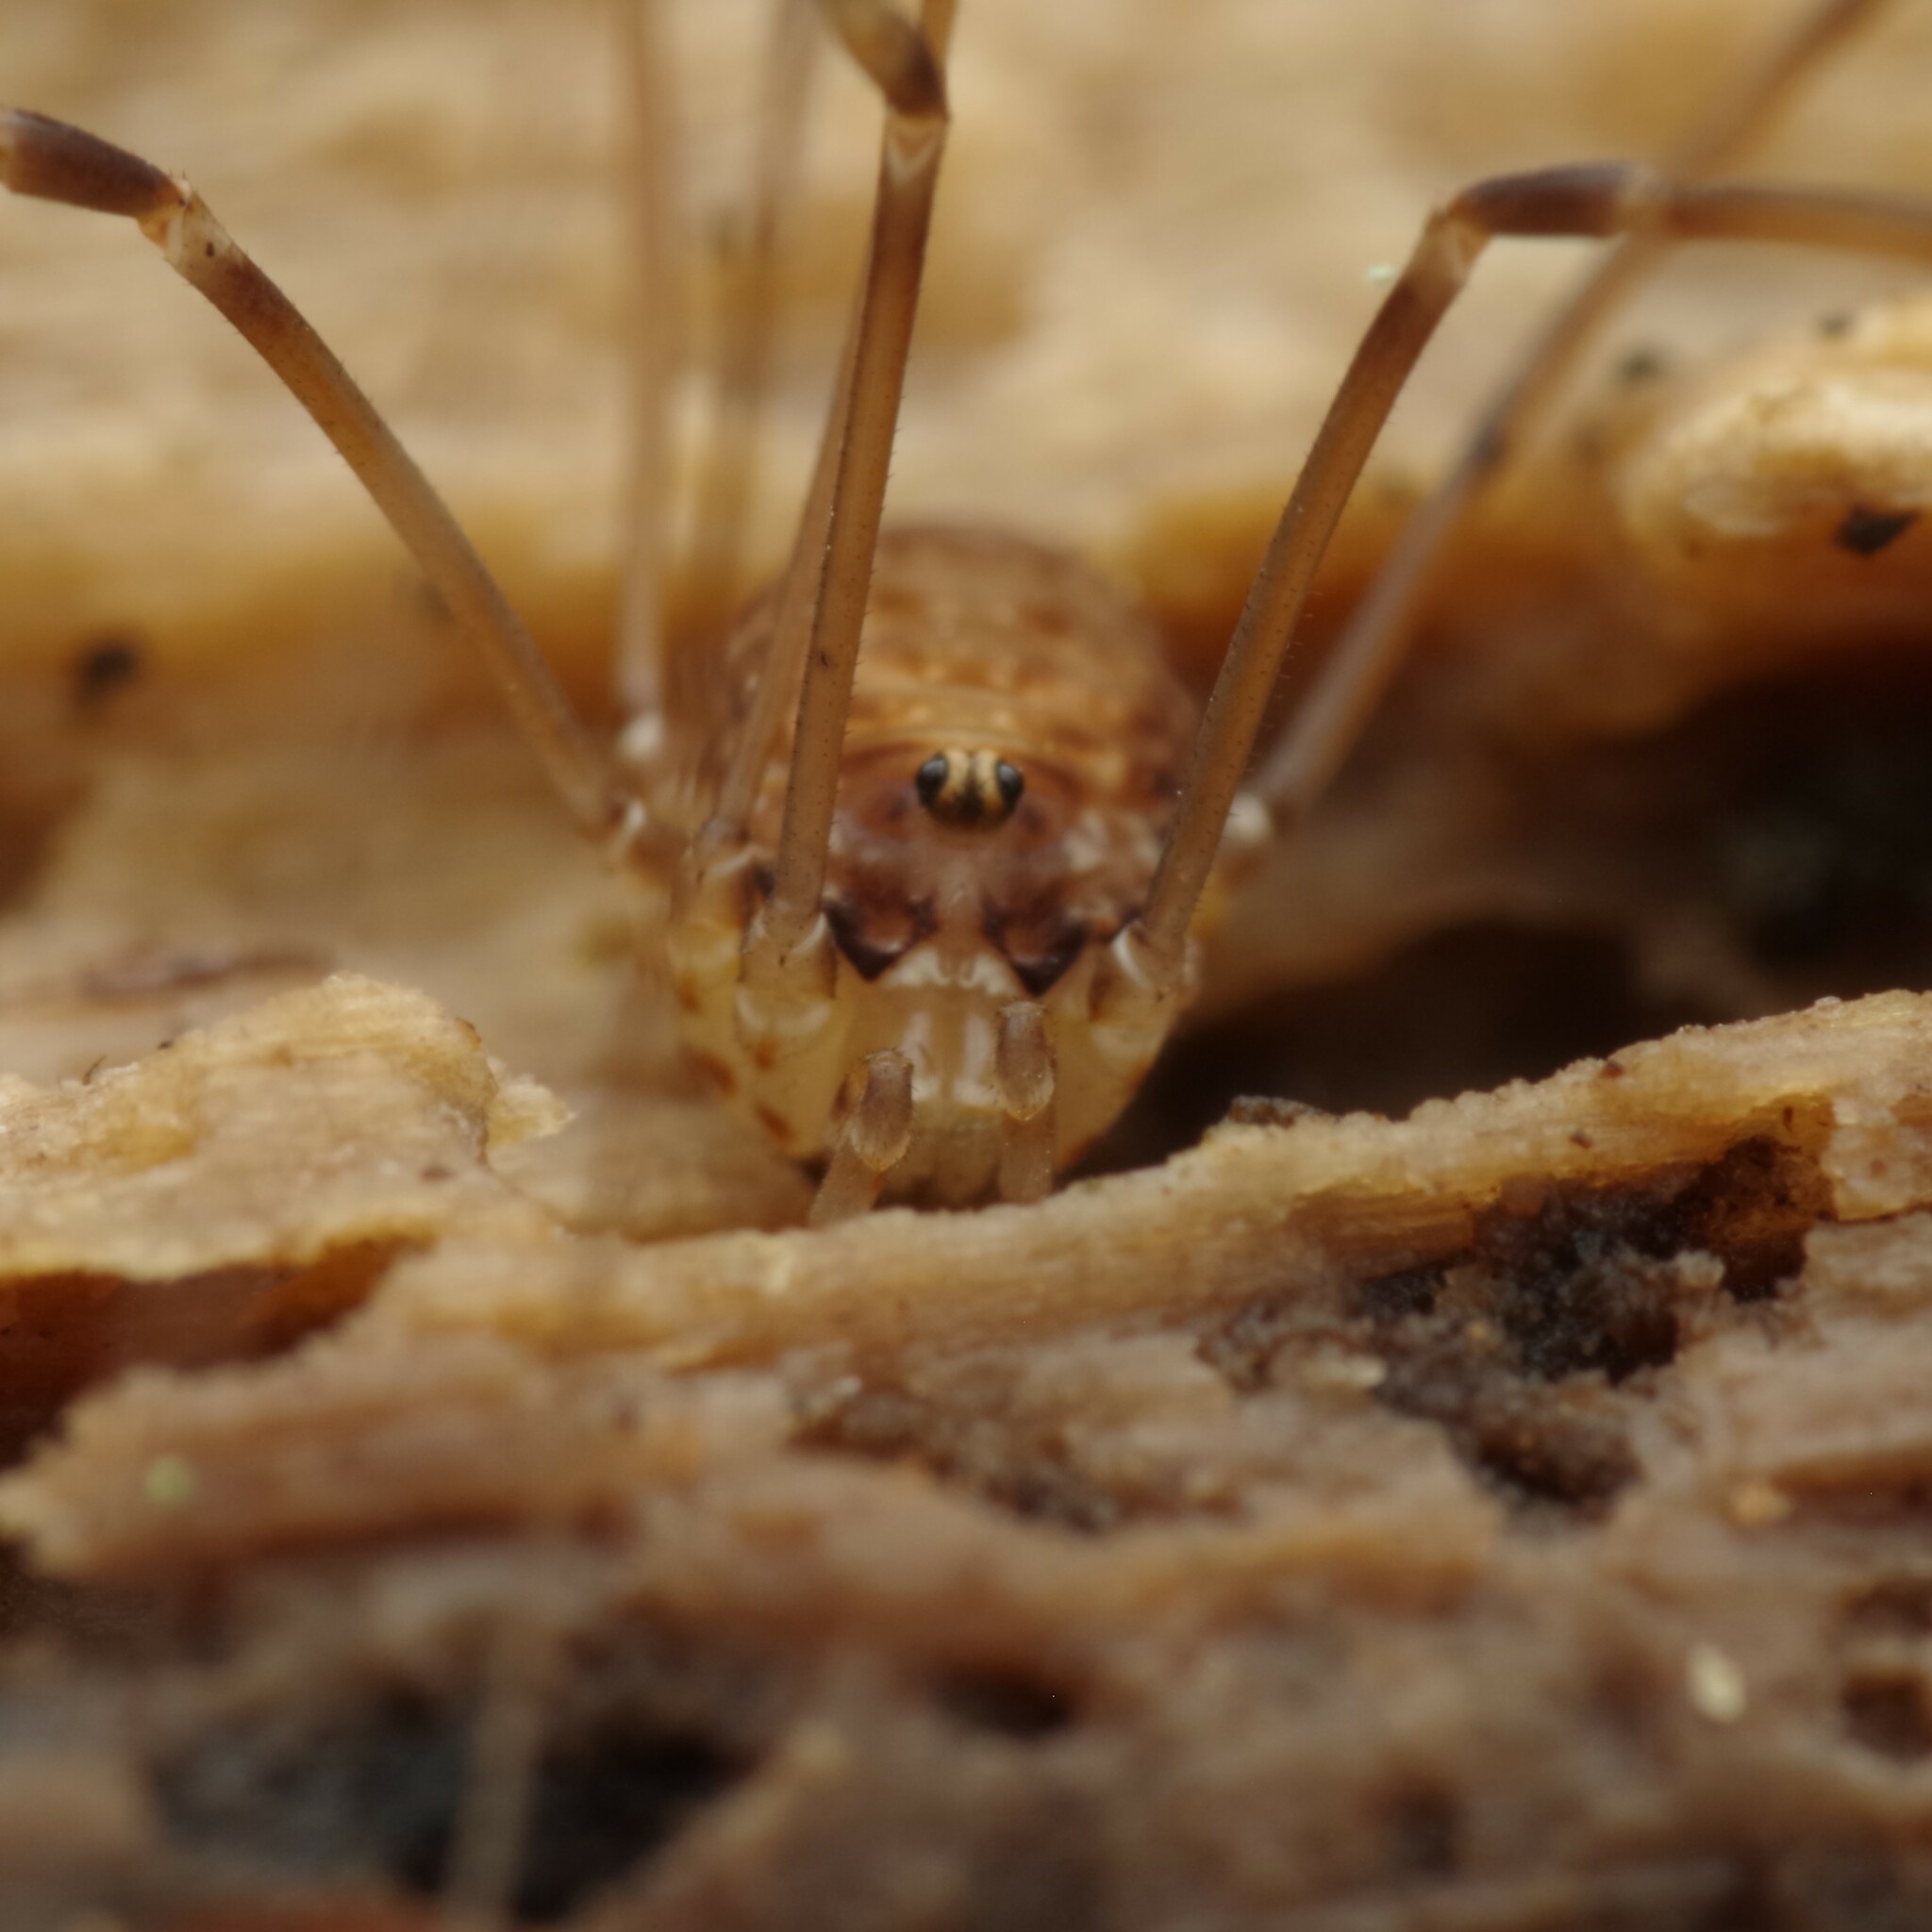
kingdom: Animalia
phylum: Arthropoda
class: Arachnida
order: Opiliones
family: Sclerosomatidae
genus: Leiobunum
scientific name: Leiobunum blackwalli
